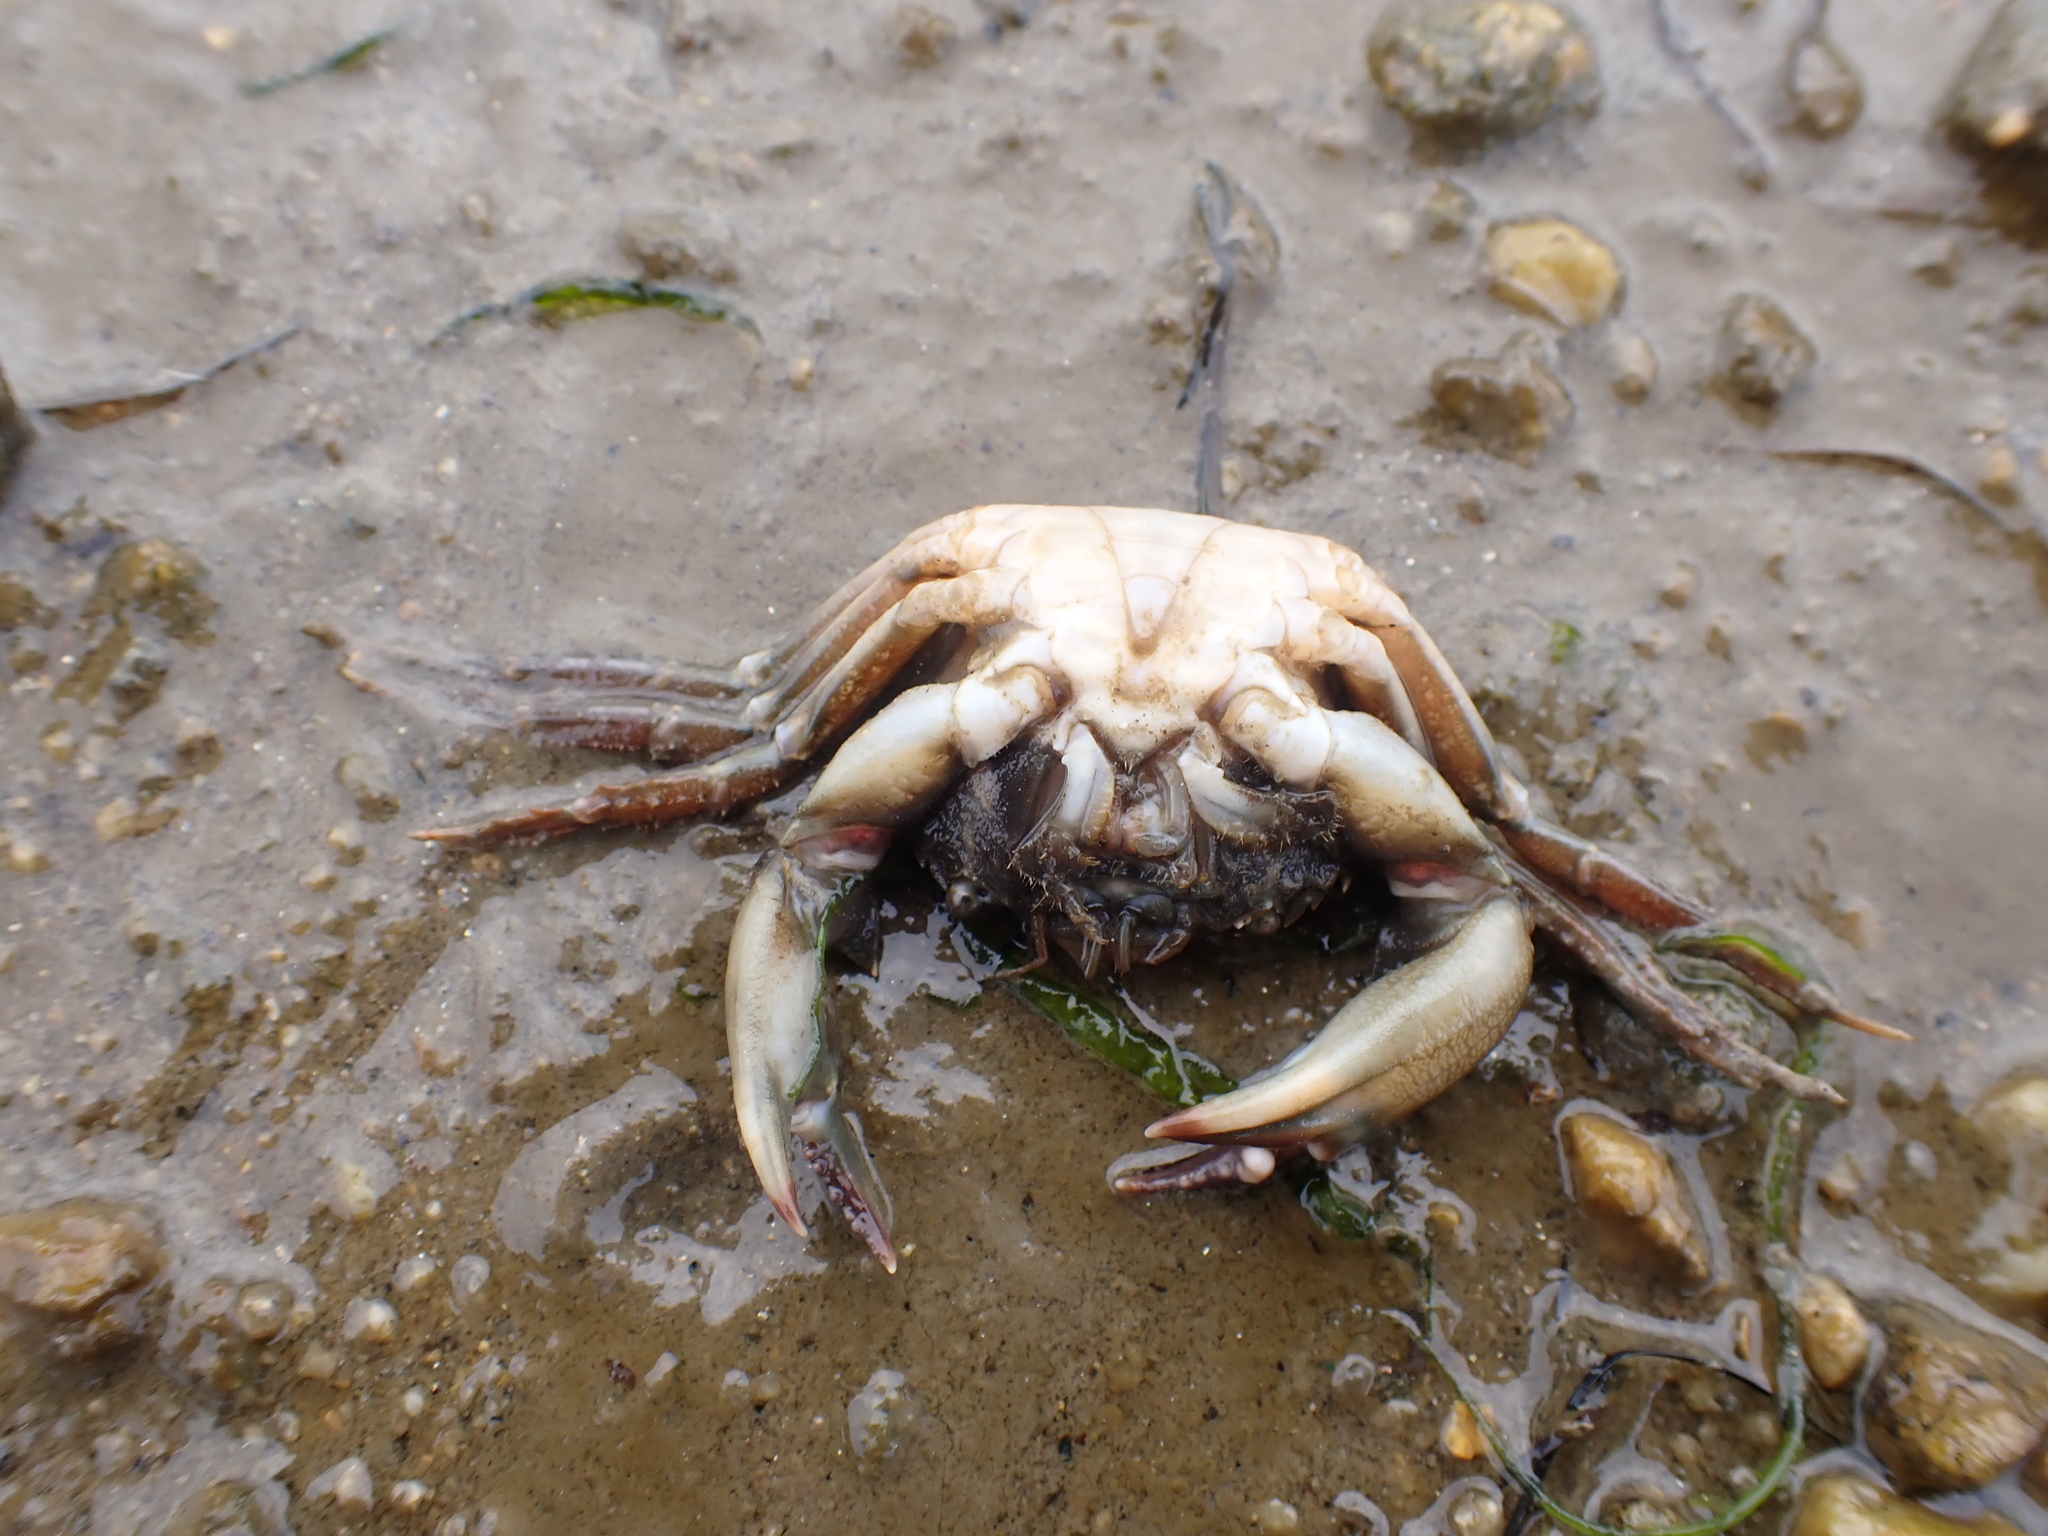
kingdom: Animalia
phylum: Arthropoda
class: Malacostraca
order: Decapoda
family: Polybiidae
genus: Liocarcinus
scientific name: Liocarcinus navigator
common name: Arch-fronted swimming crab
